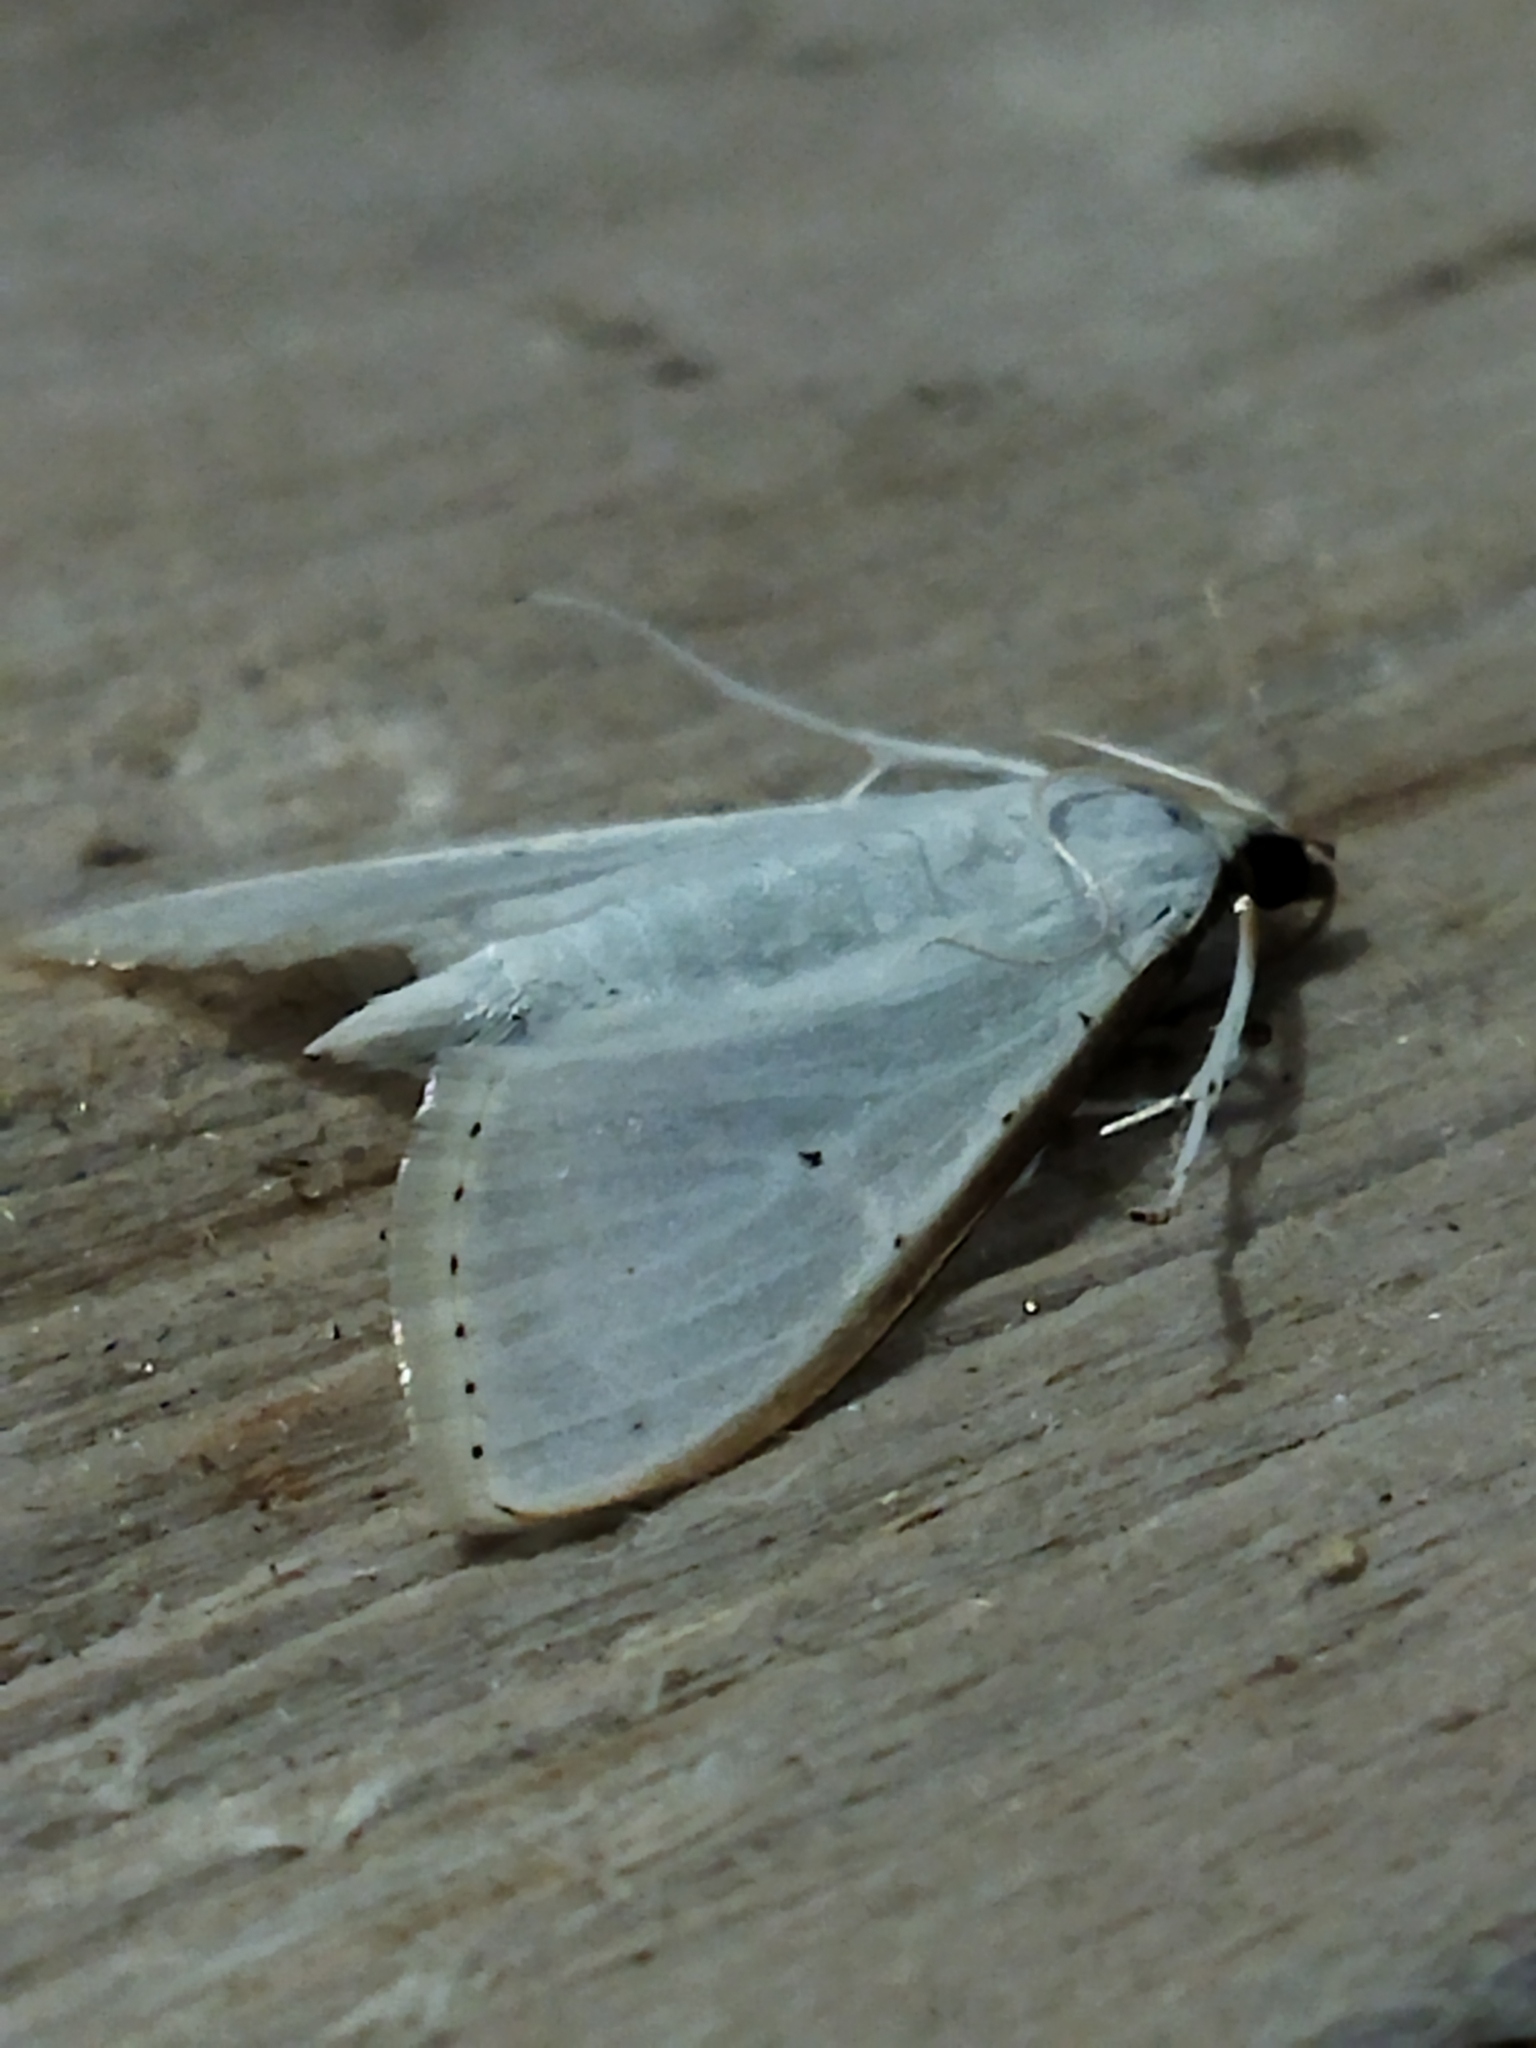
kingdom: Animalia
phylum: Arthropoda
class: Insecta
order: Lepidoptera
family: Crambidae
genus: Palpita
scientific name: Palpita vitrealis
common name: Olive-tree pearl
